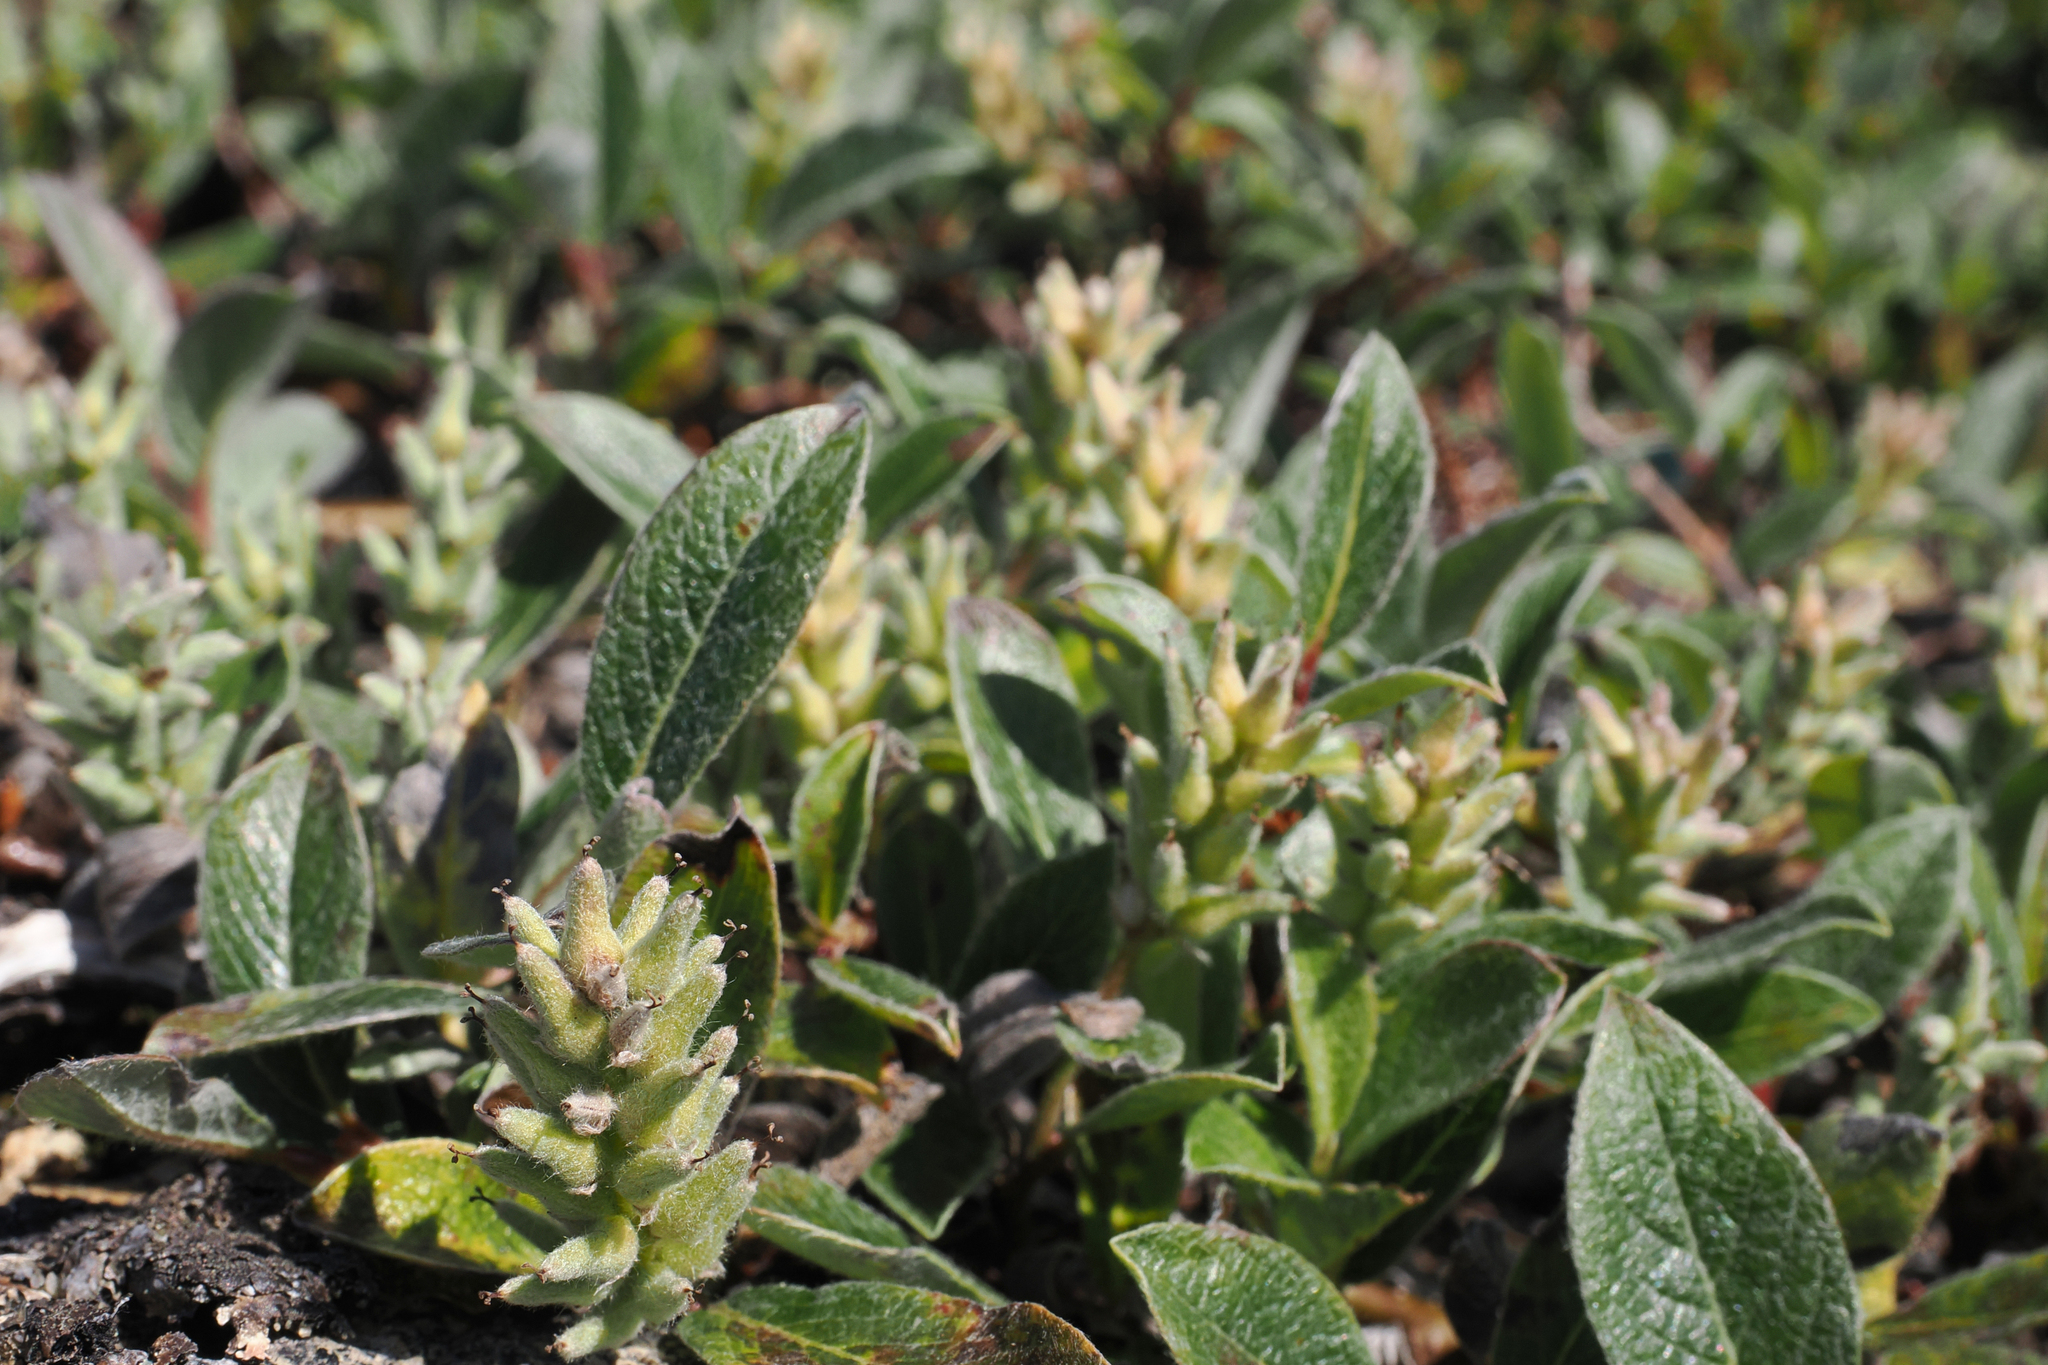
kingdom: Plantae
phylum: Tracheophyta
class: Magnoliopsida
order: Malpighiales
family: Salicaceae
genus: Salix
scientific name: Salix glauca
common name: Glaucous willow
